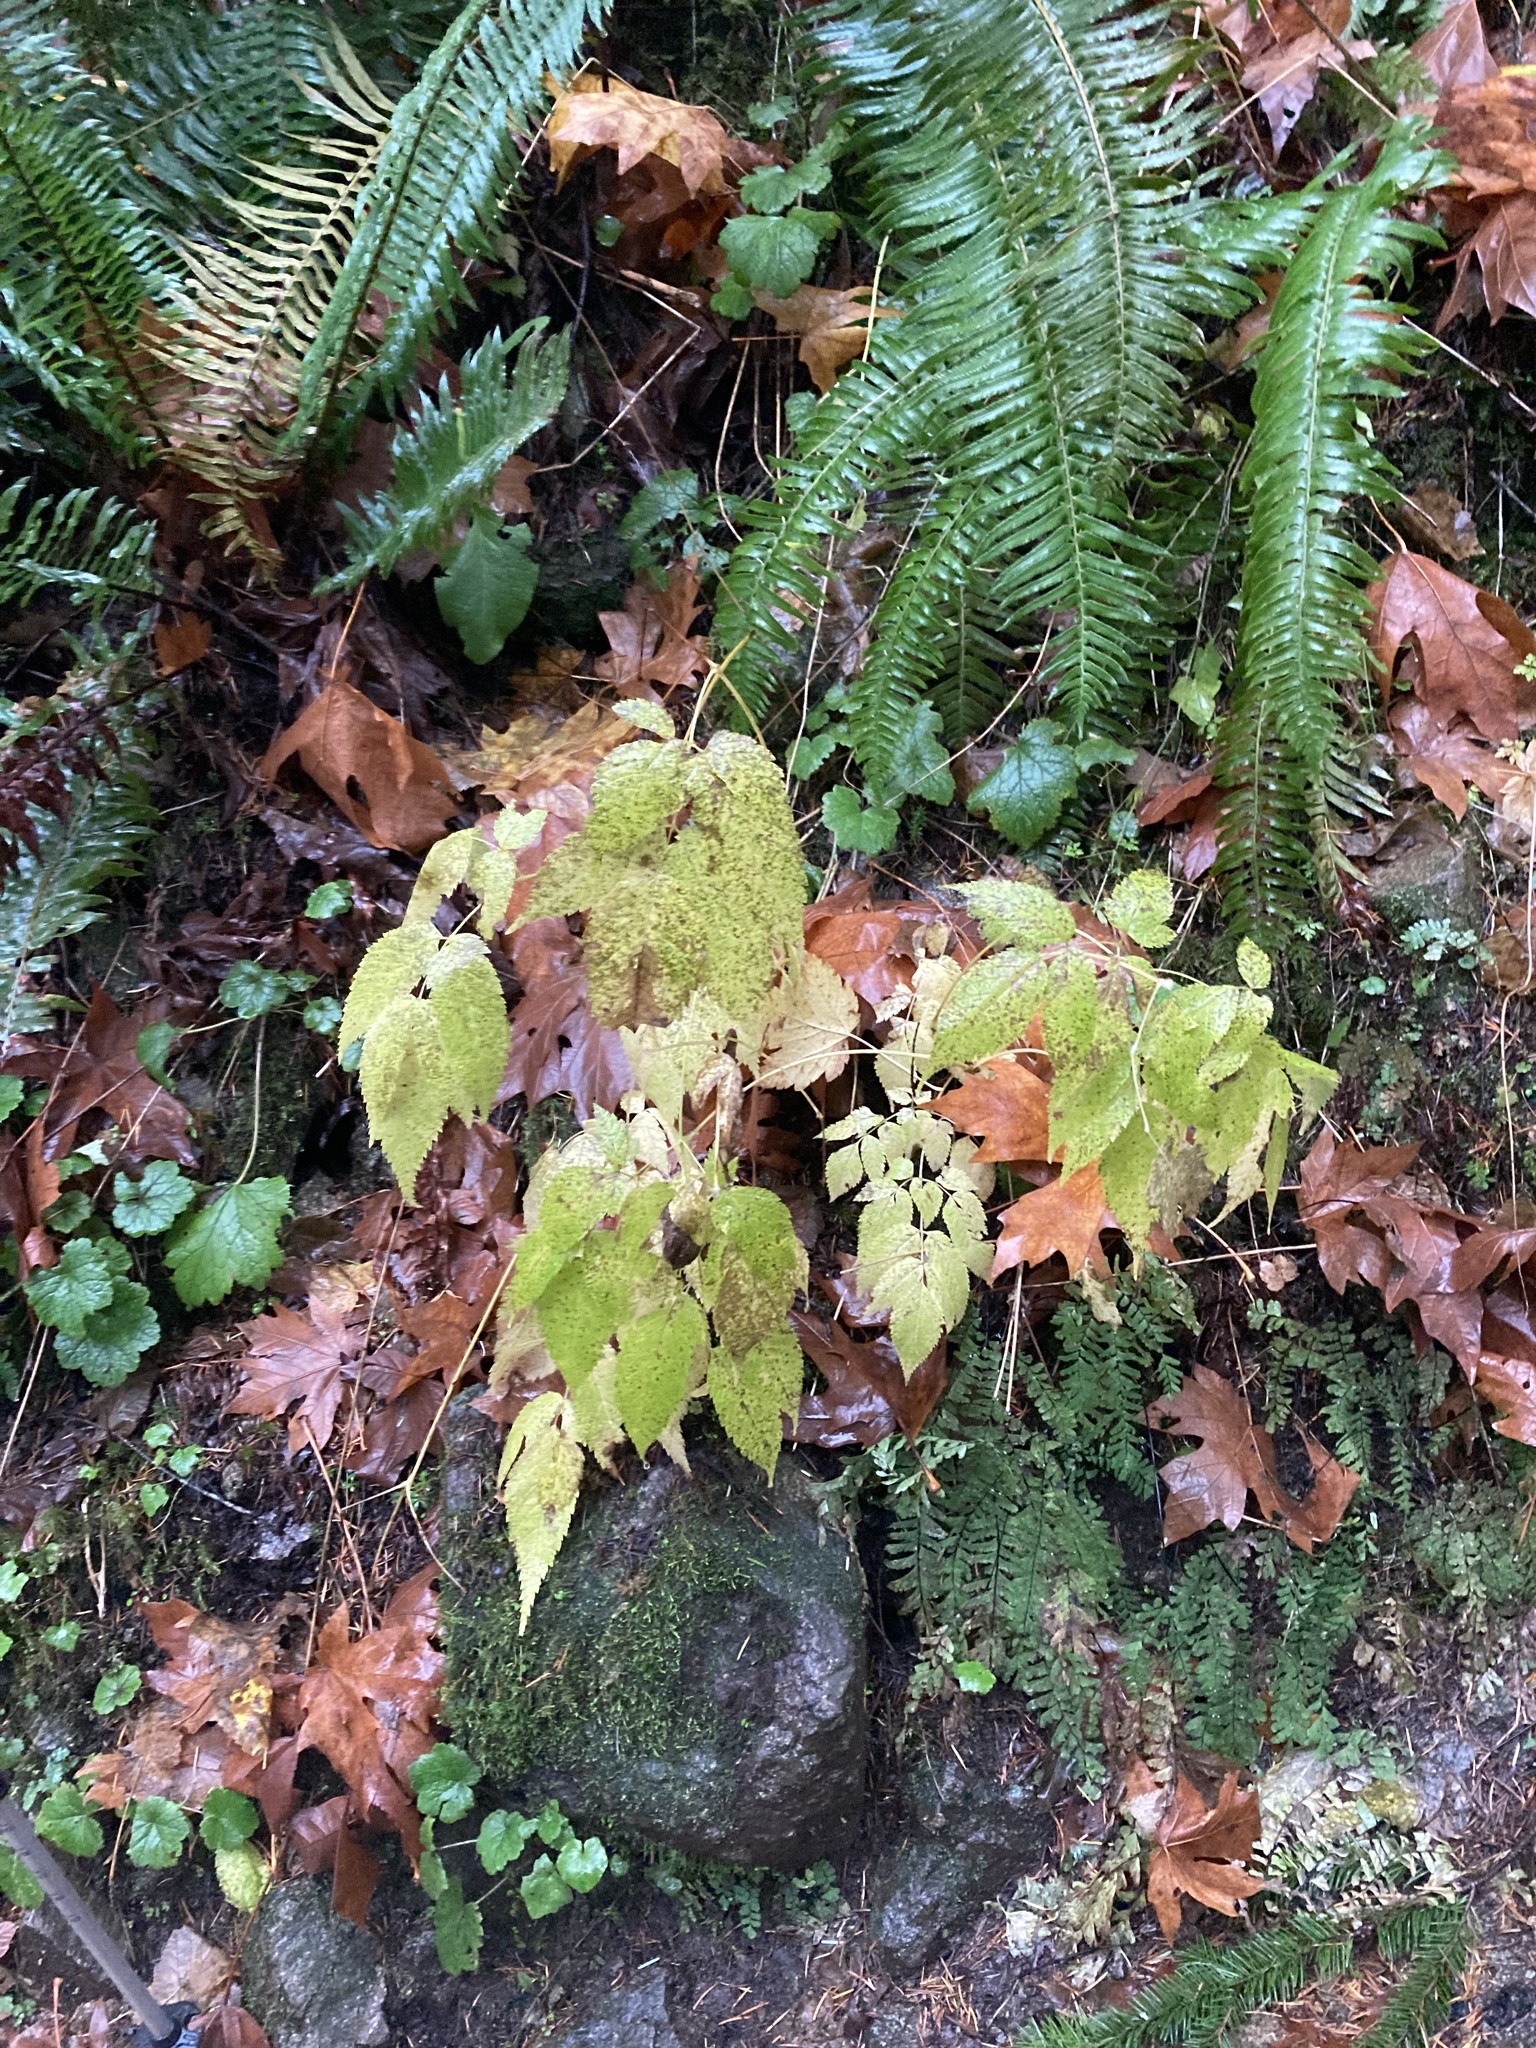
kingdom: Plantae
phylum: Tracheophyta
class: Magnoliopsida
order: Rosales
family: Rosaceae
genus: Aruncus
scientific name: Aruncus dioicus
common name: Buck's-beard
